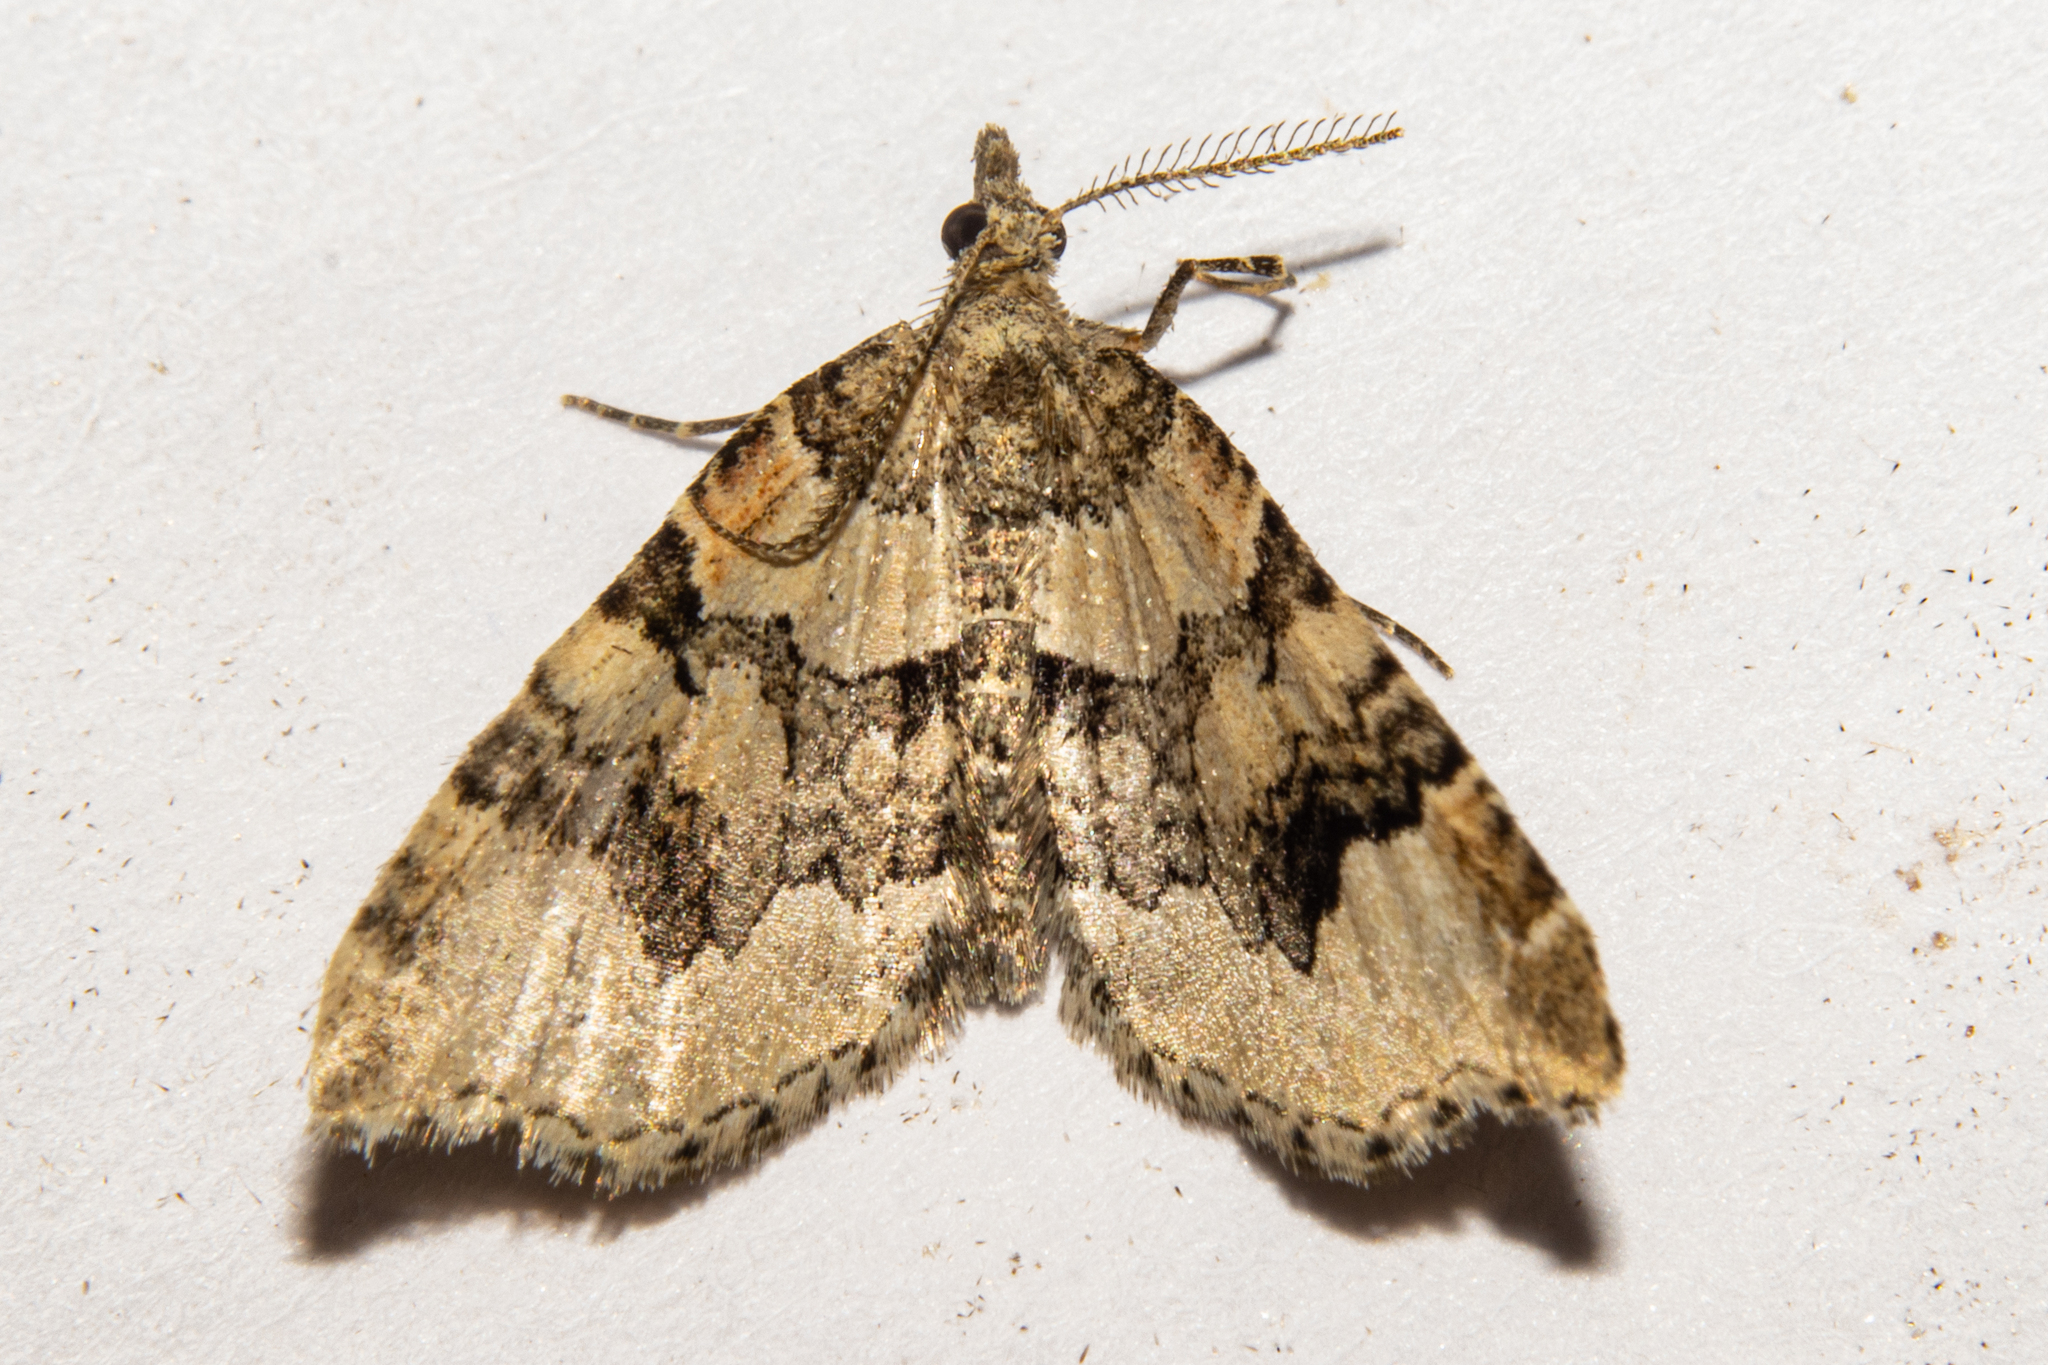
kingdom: Animalia
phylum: Arthropoda
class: Insecta
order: Lepidoptera
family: Geometridae
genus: Helastia
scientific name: Helastia cryptica
